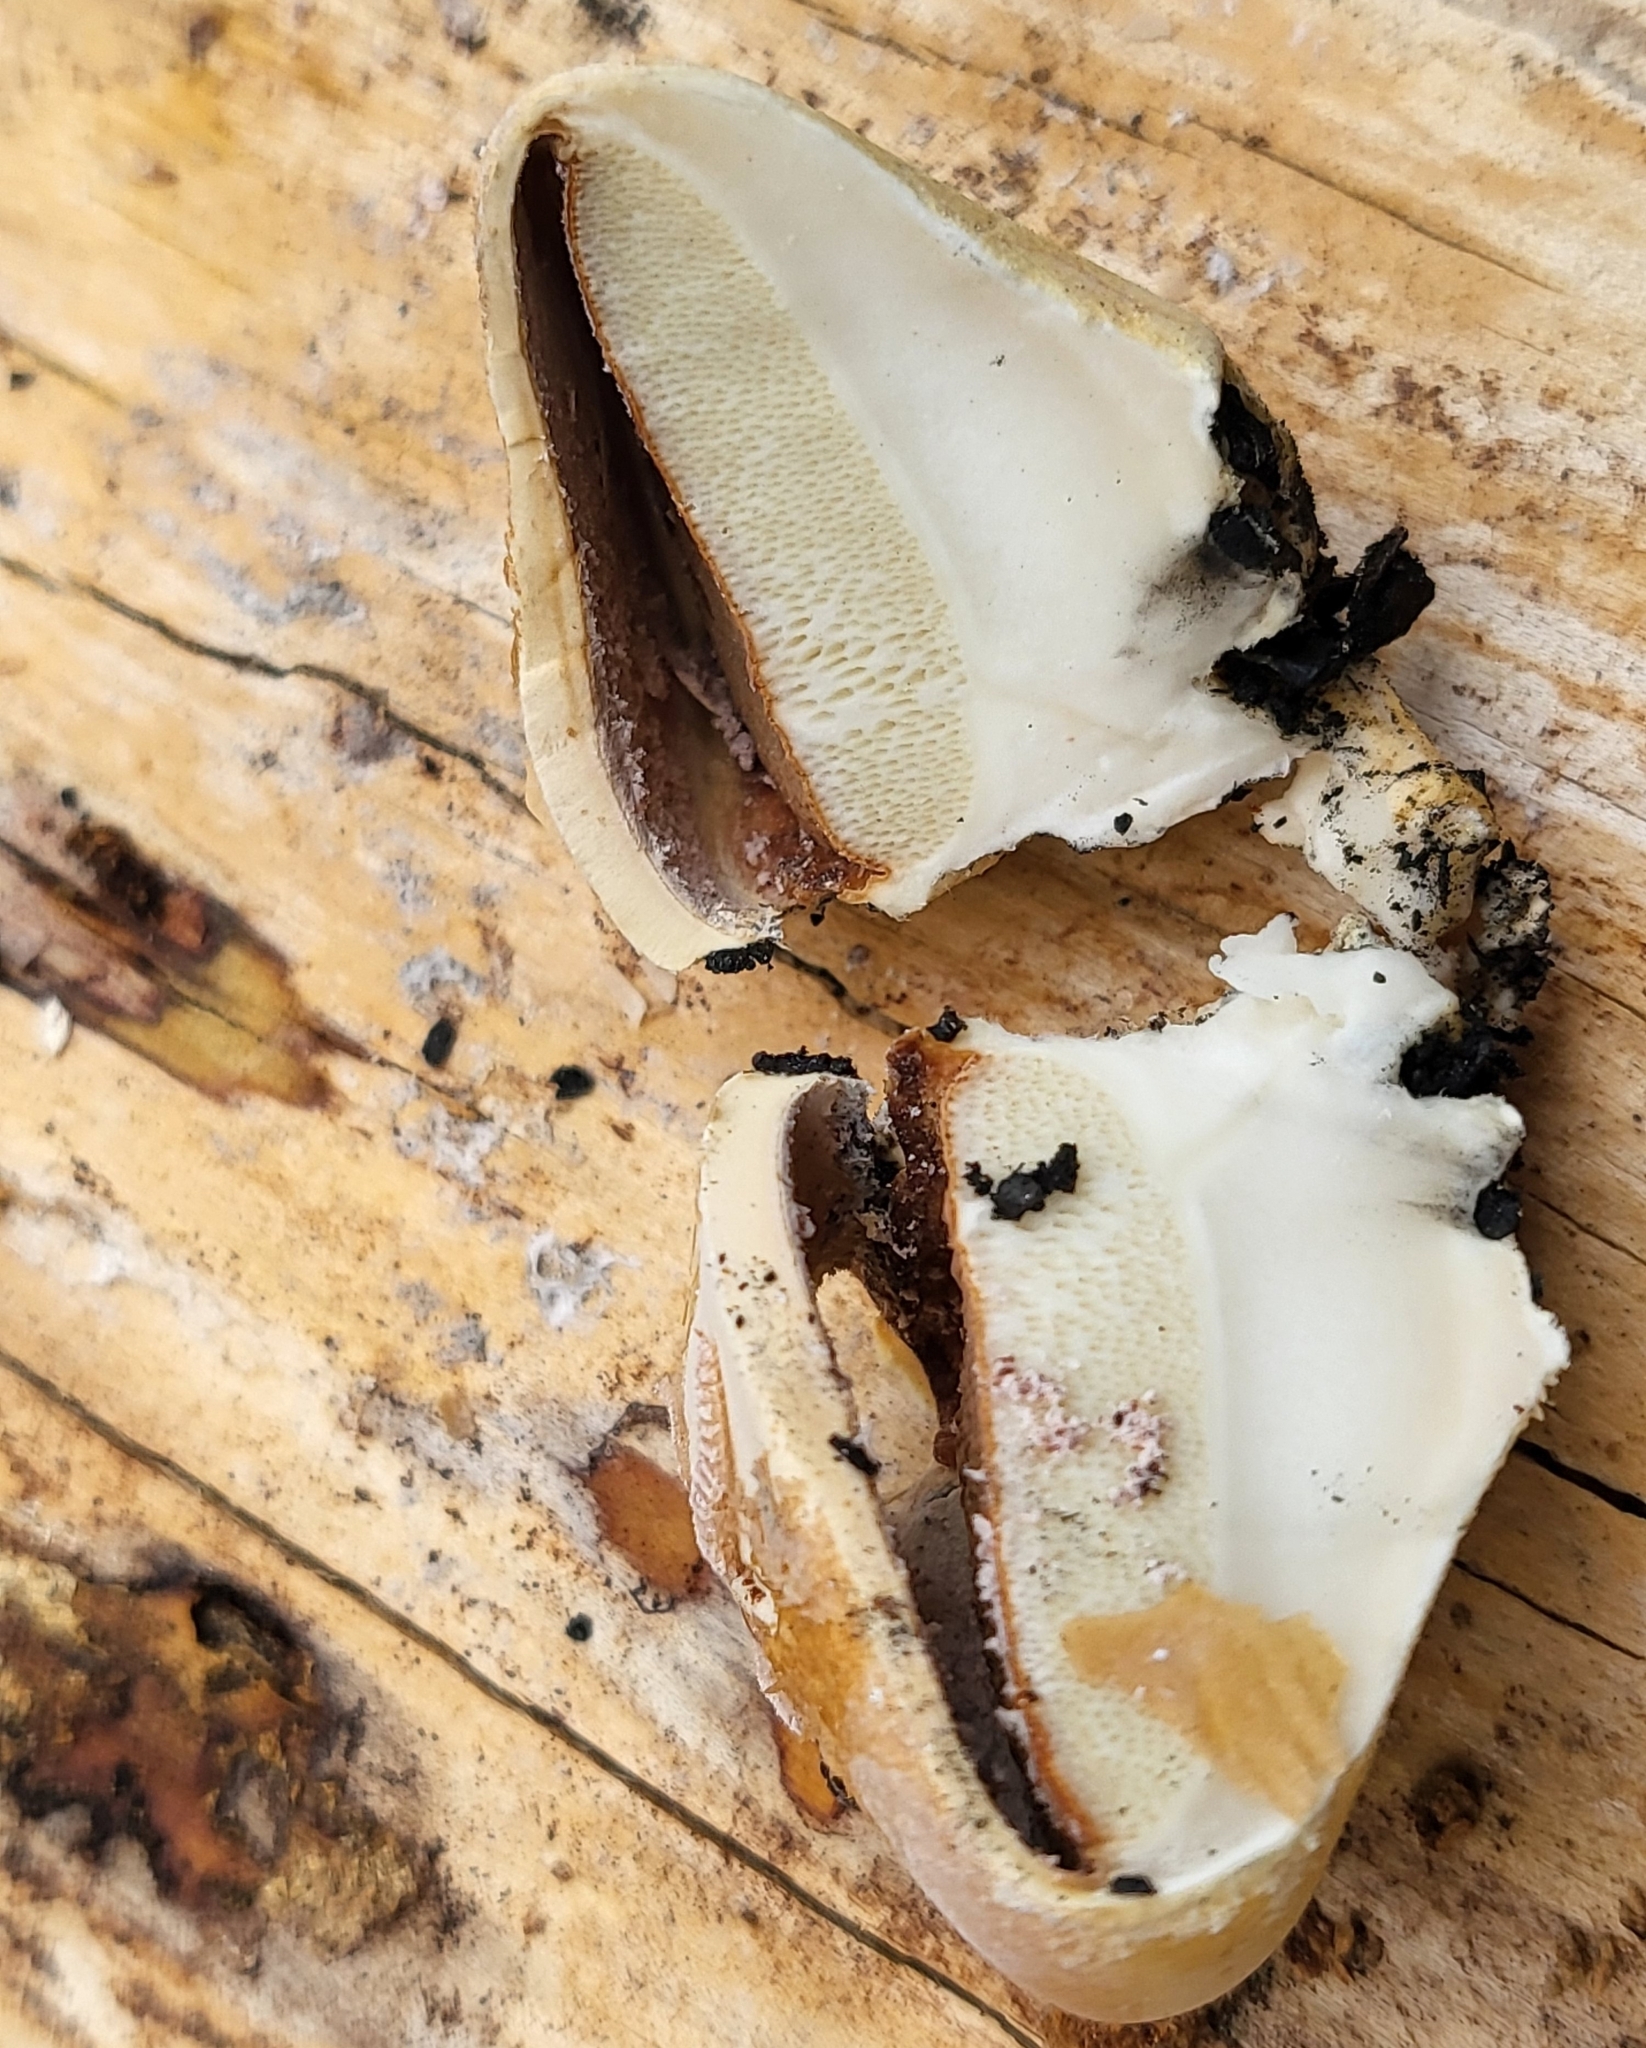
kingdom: Fungi
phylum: Basidiomycota
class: Agaricomycetes
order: Polyporales
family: Polyporaceae
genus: Cryptoporus
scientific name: Cryptoporus volvatus
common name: Veiled polypore
